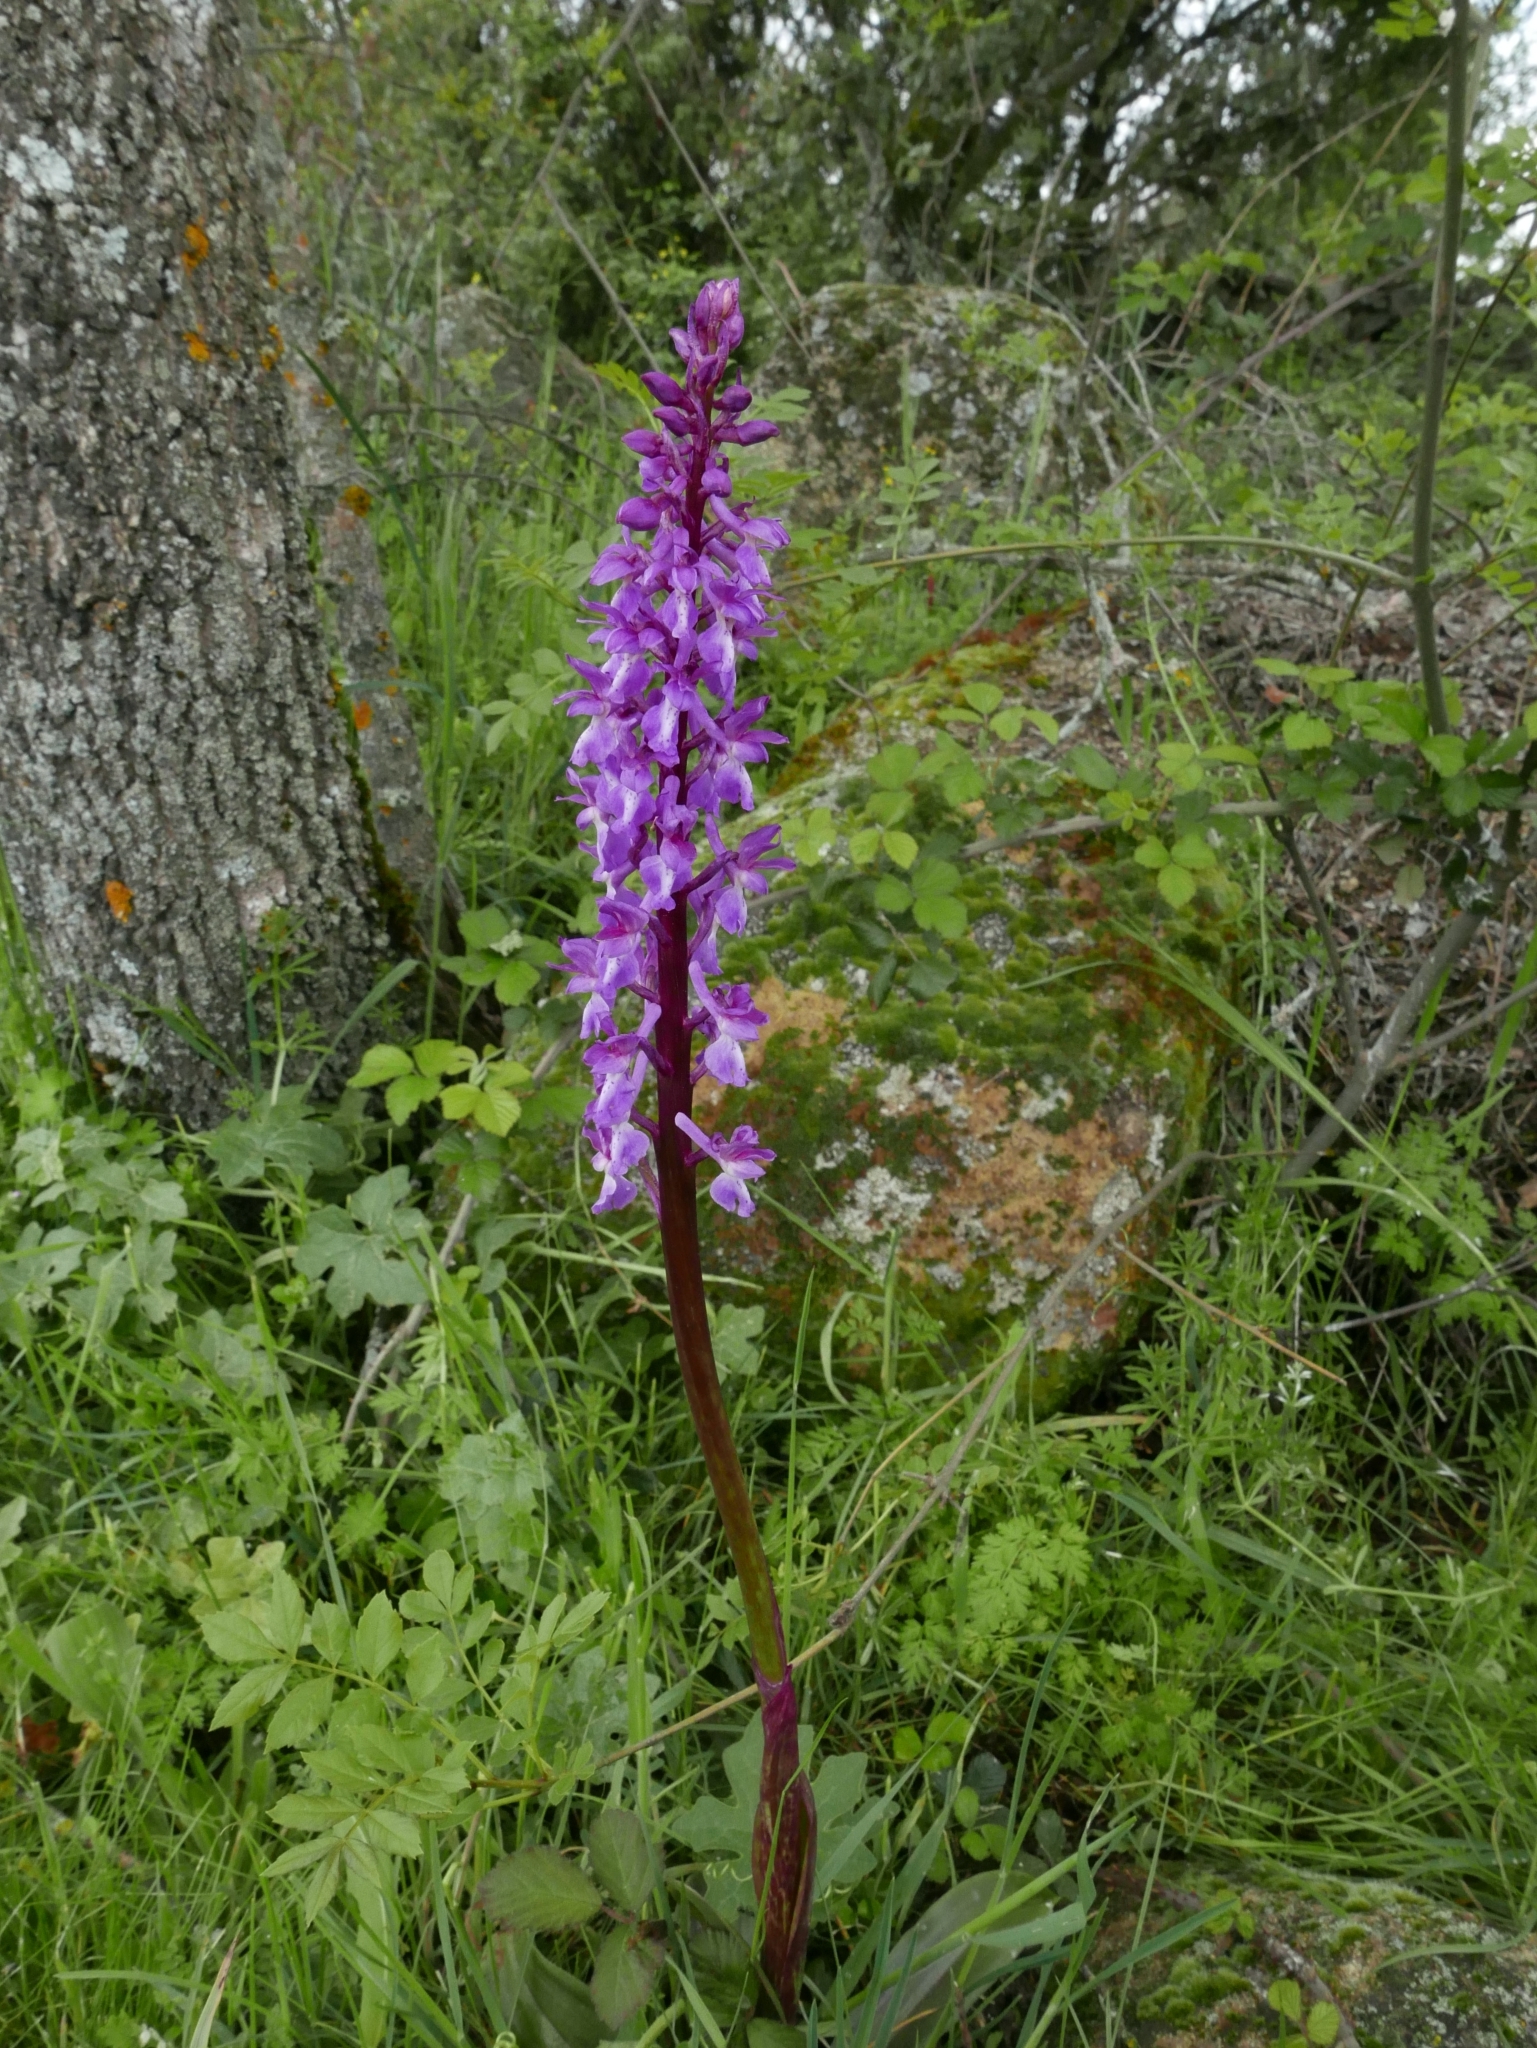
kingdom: Plantae
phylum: Tracheophyta
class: Liliopsida
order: Asparagales
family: Orchidaceae
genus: Orchis
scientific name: Orchis mascula
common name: Early-purple orchid
